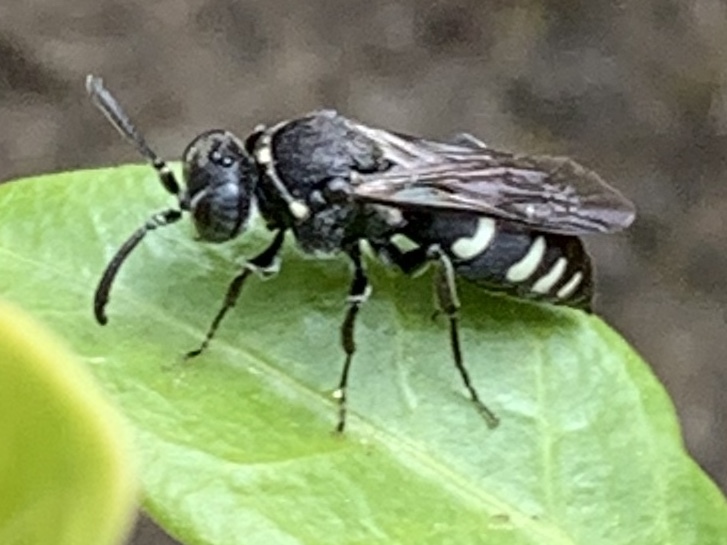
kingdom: Animalia
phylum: Arthropoda
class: Insecta
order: Hymenoptera
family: Crabronidae
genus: Nysson
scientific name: Nysson tristis
